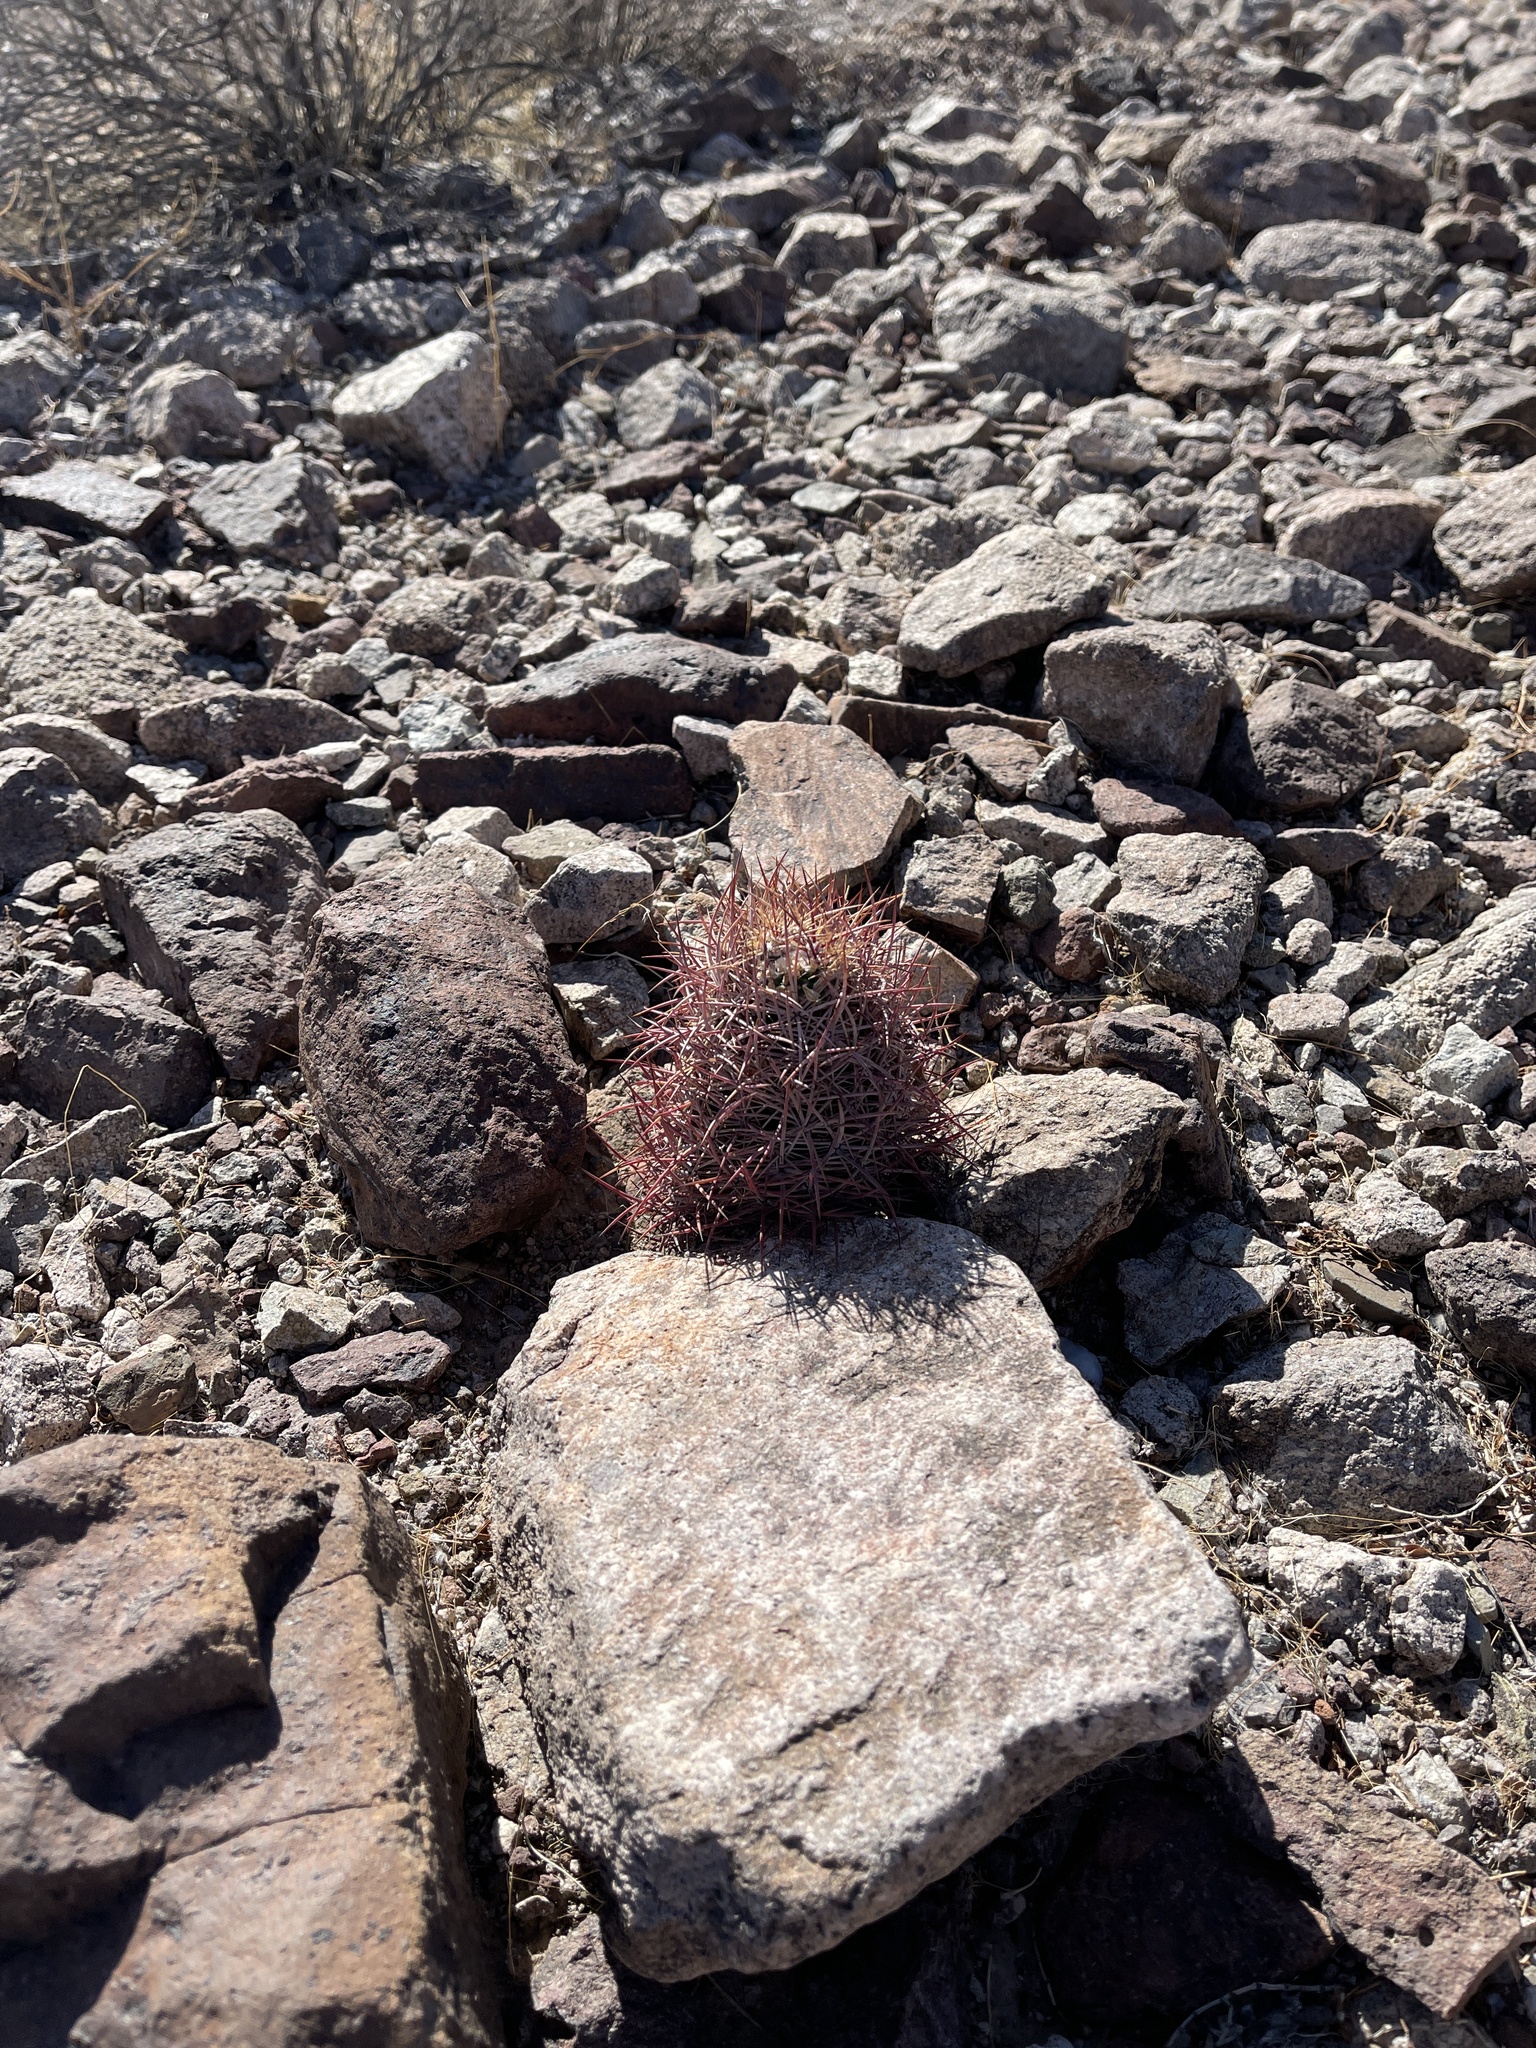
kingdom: Plantae
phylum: Tracheophyta
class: Magnoliopsida
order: Caryophyllales
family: Cactaceae
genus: Sclerocactus
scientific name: Sclerocactus johnsonii
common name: Eight-spine fishhook cactus
